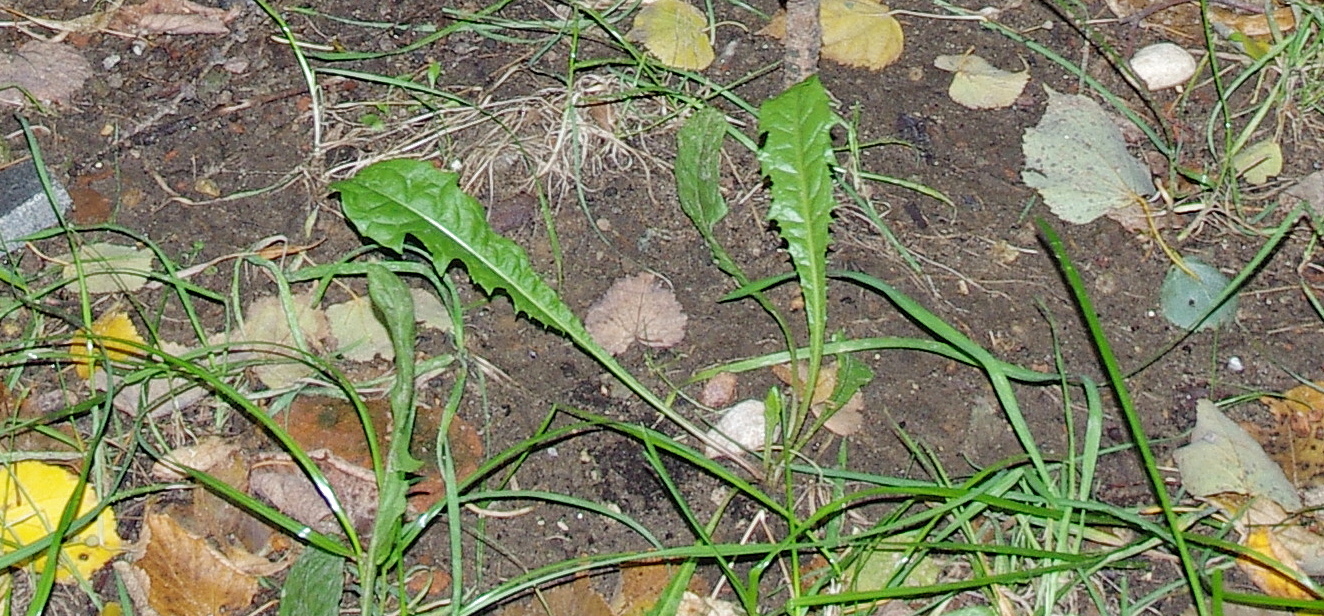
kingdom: Plantae
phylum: Tracheophyta
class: Magnoliopsida
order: Asterales
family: Asteraceae
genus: Taraxacum
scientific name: Taraxacum officinale
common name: Common dandelion
